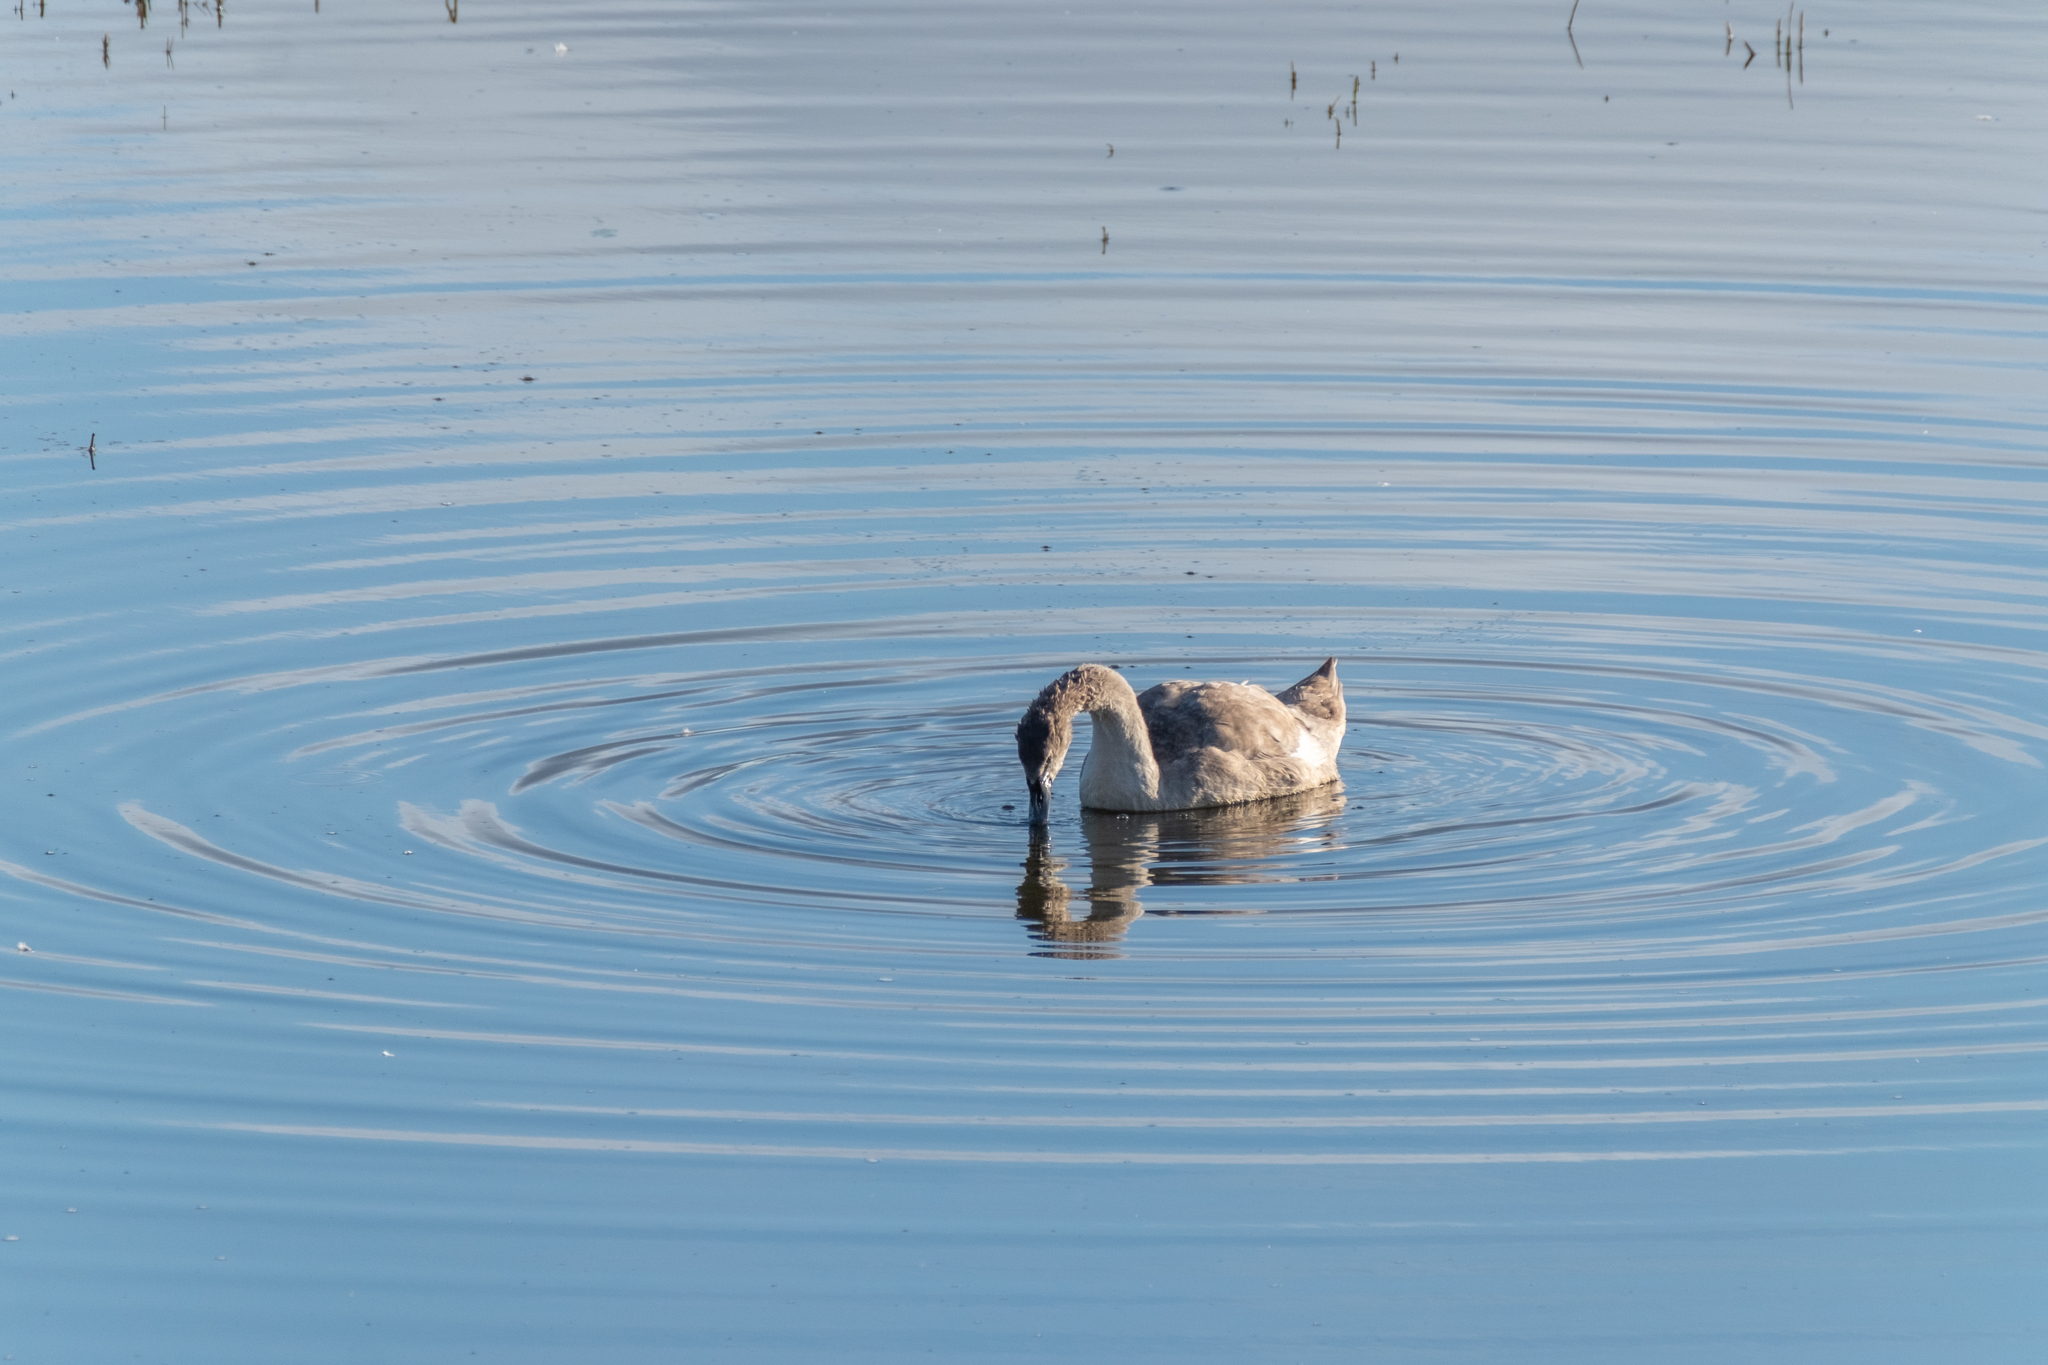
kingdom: Animalia
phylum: Chordata
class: Aves
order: Anseriformes
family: Anatidae
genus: Cygnus
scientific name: Cygnus olor
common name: Mute swan
